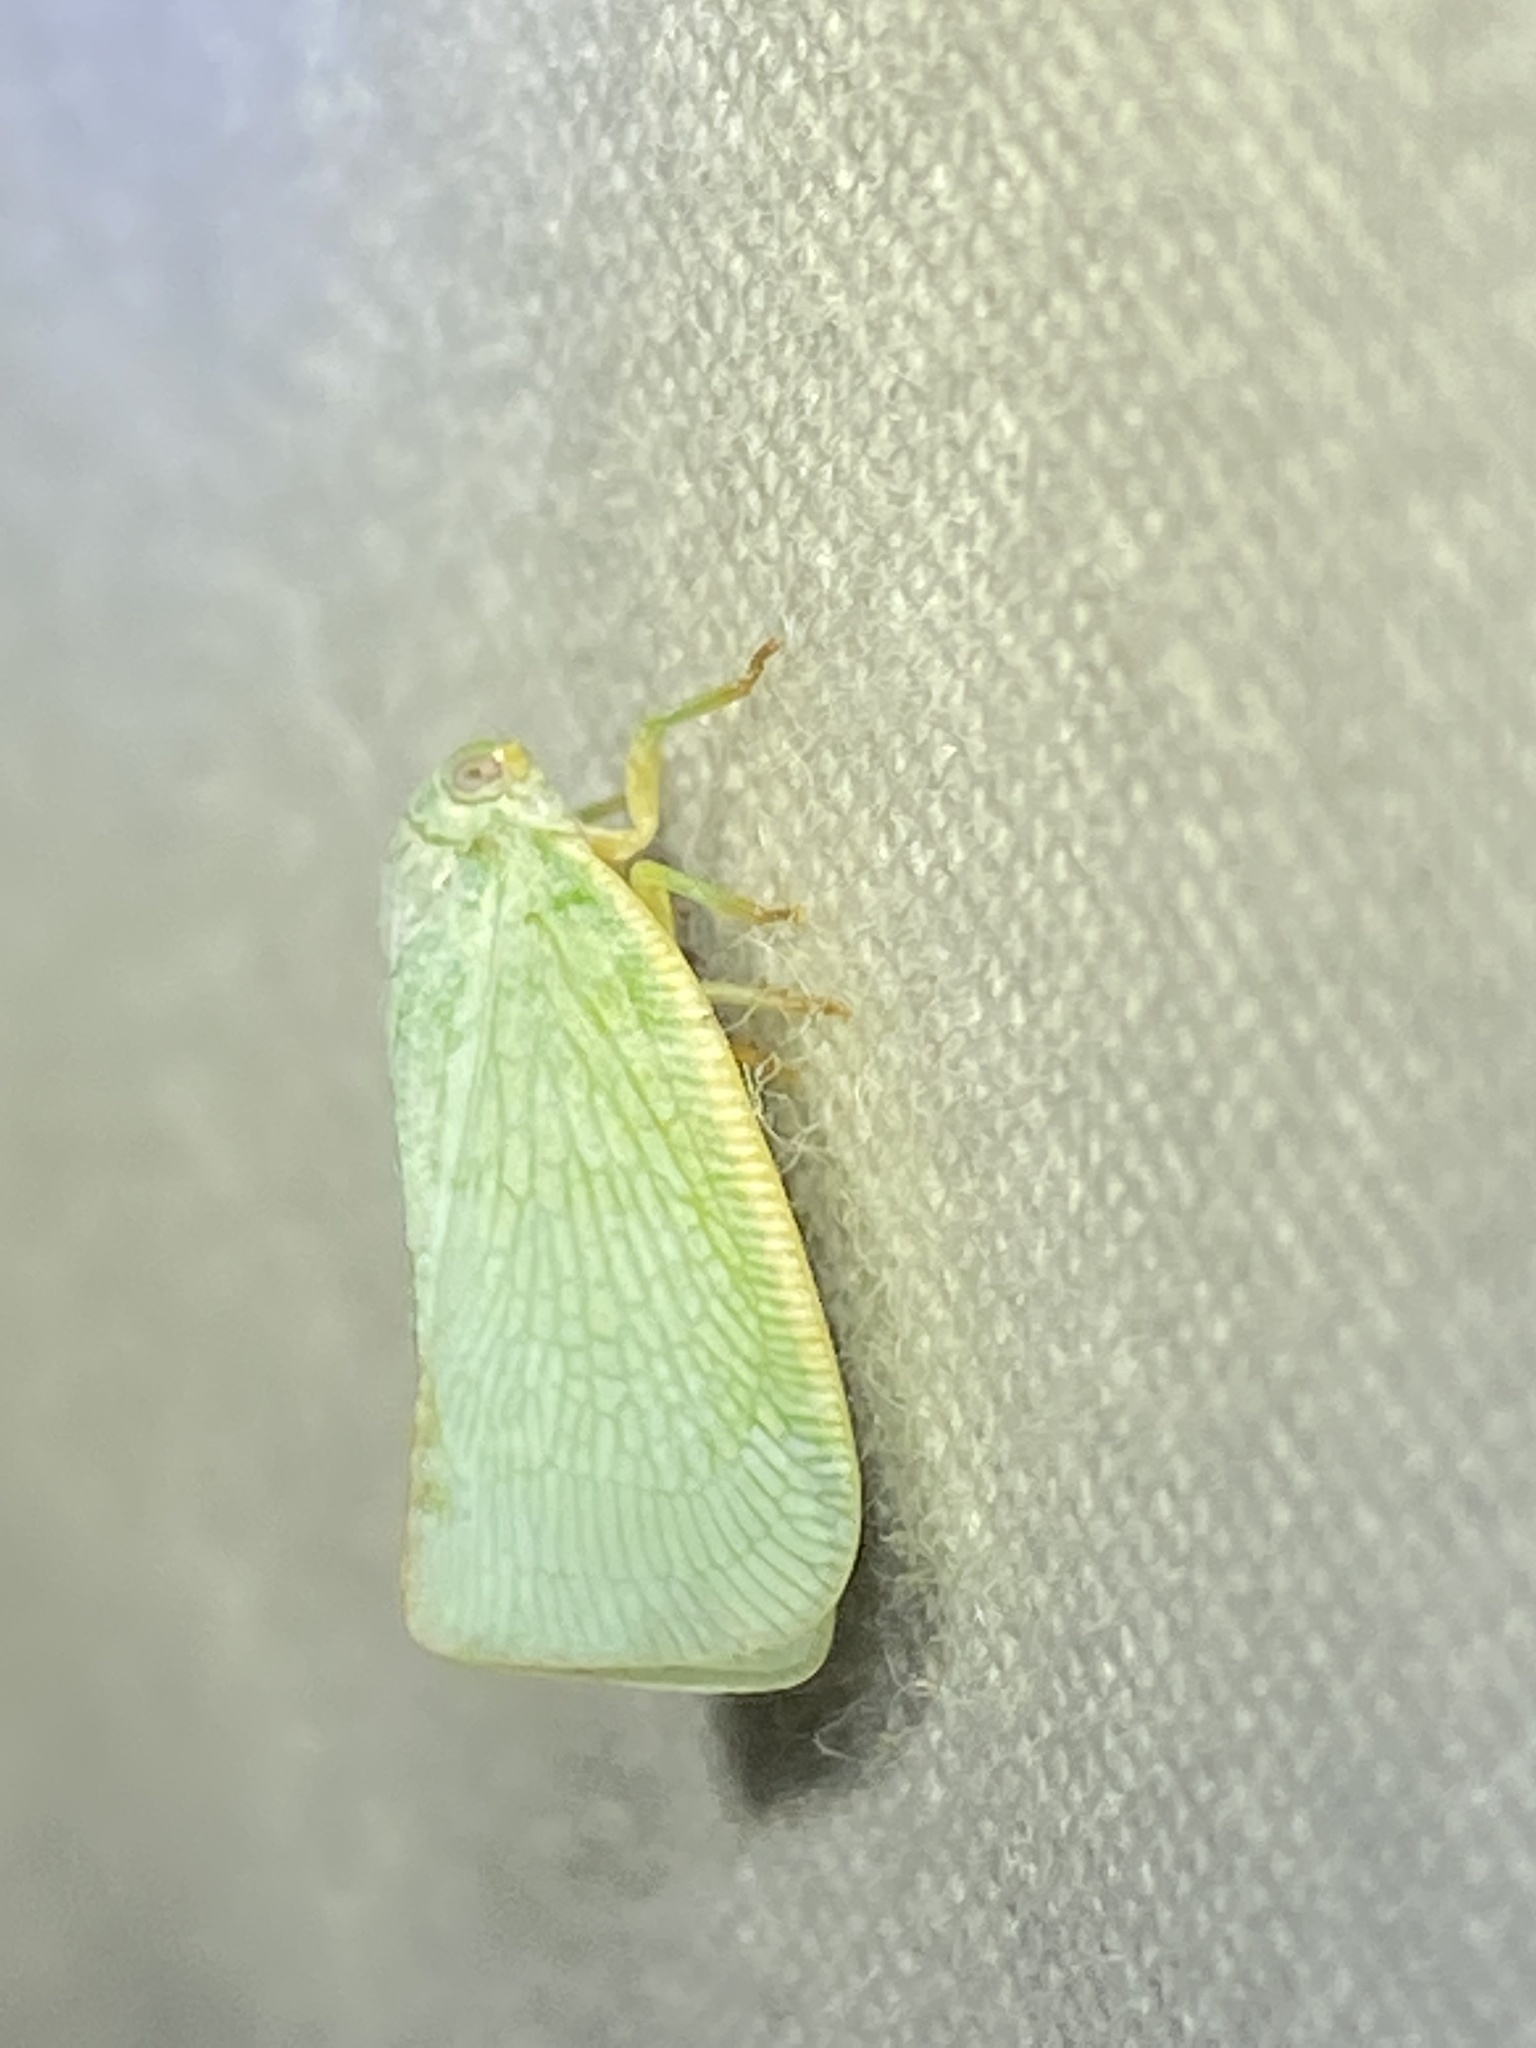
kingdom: Animalia
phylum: Arthropoda
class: Insecta
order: Hemiptera
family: Flatidae
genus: Flatormenis
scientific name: Flatormenis proxima
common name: Northern flatid planthopper
